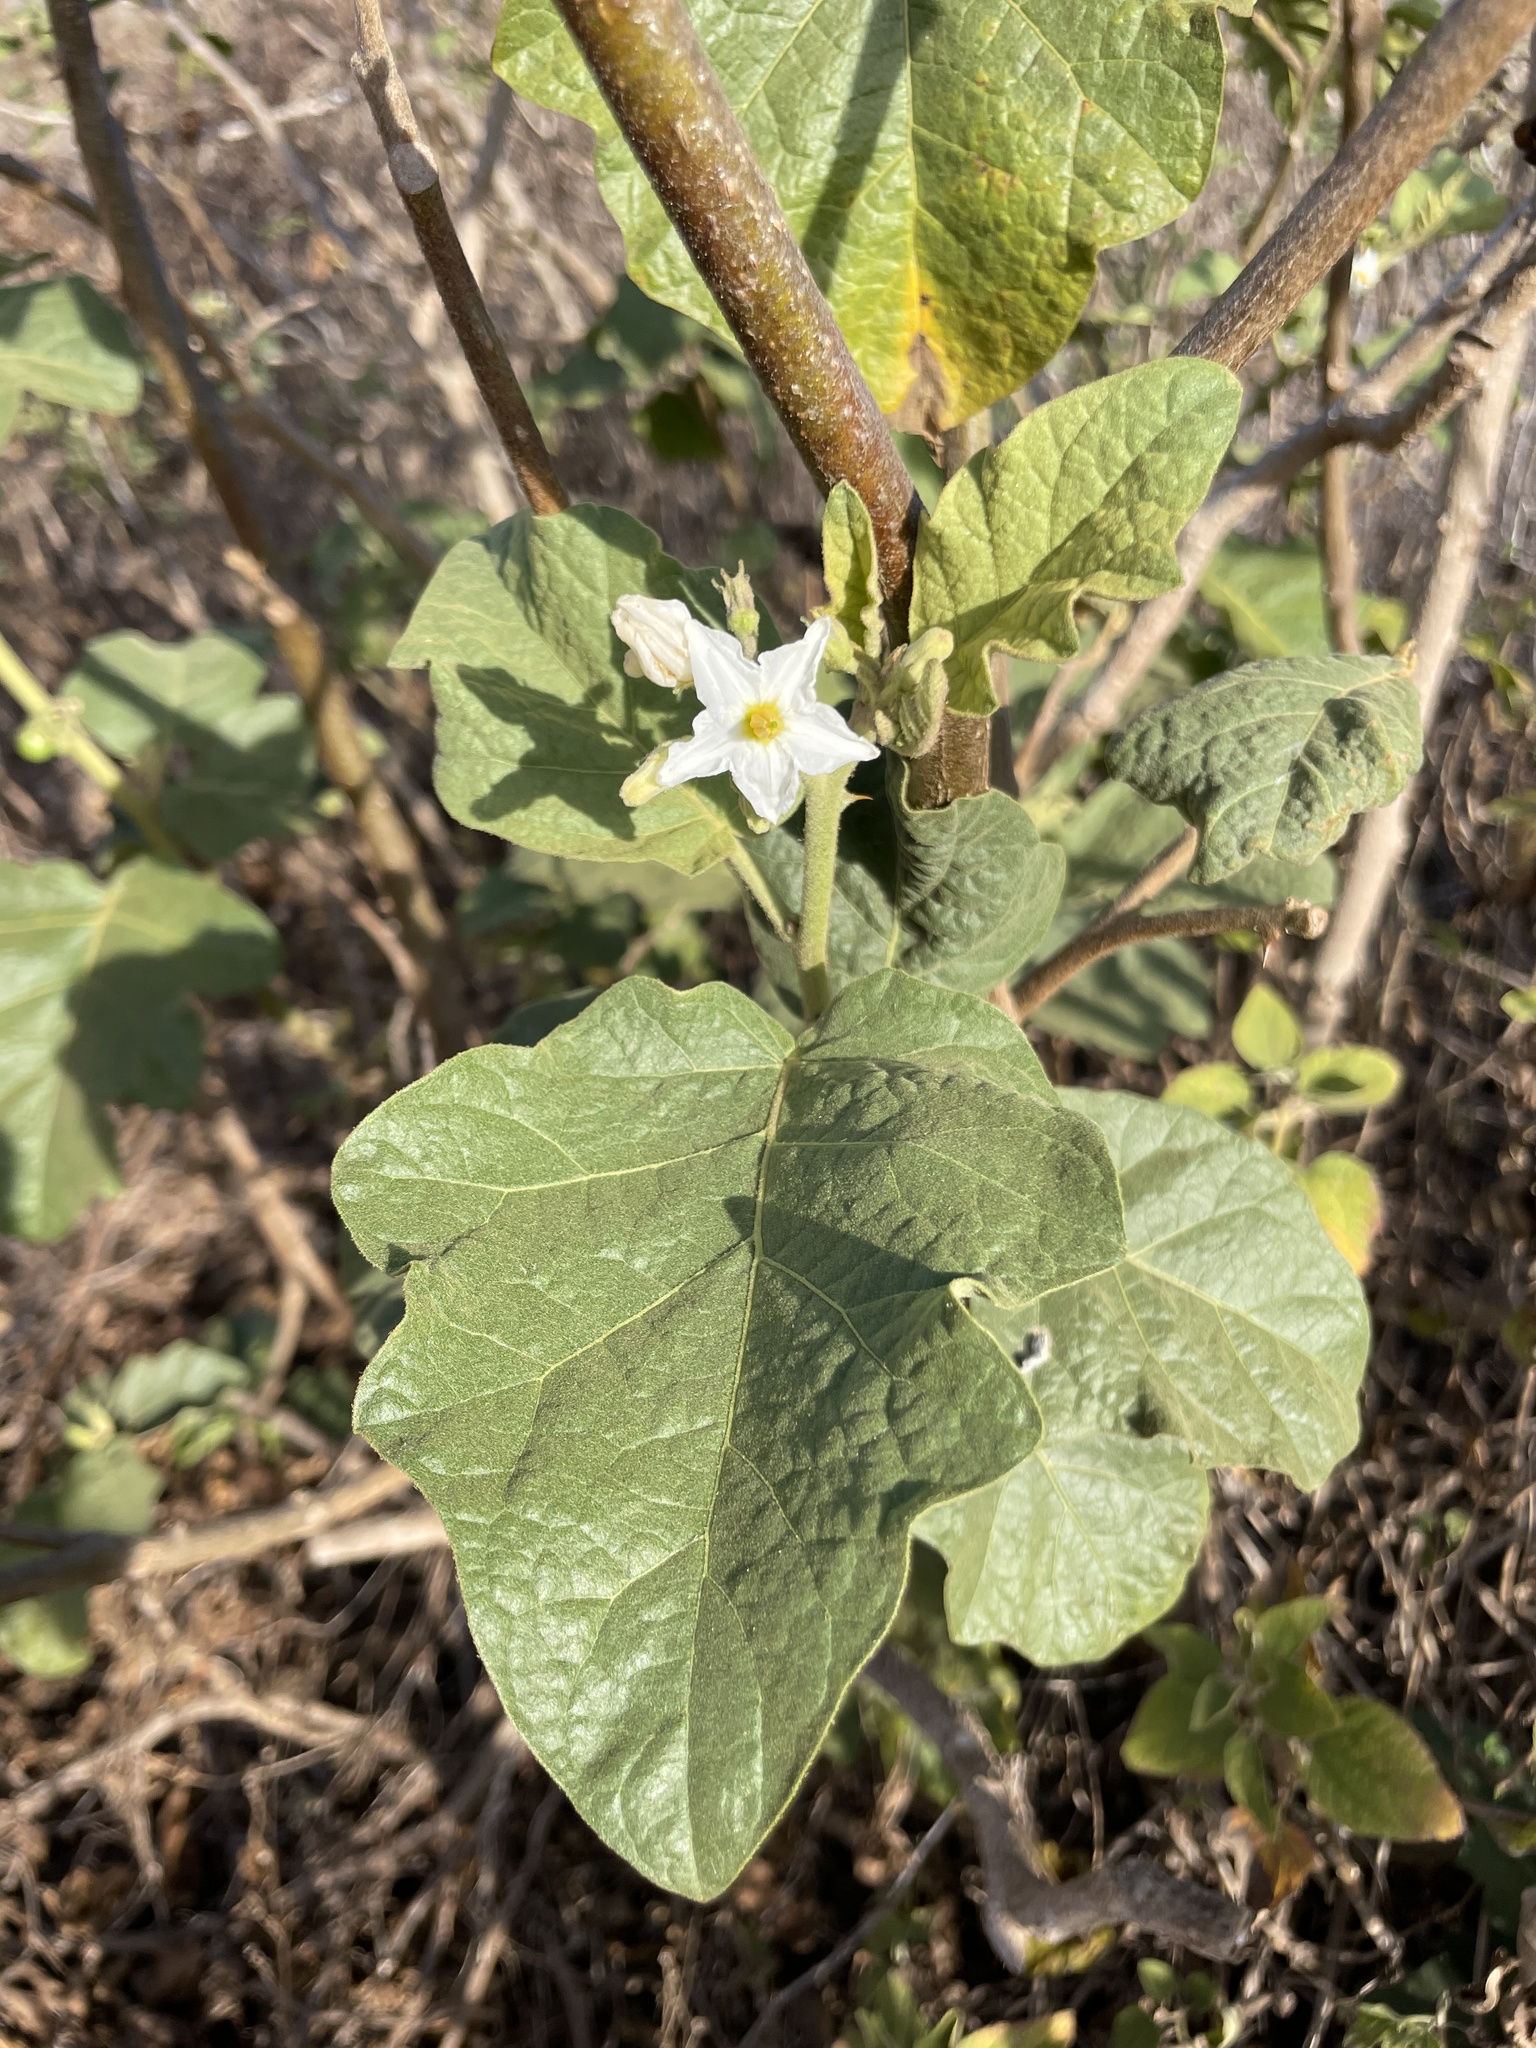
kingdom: Plantae
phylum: Tracheophyta
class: Magnoliopsida
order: Solanales
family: Solanaceae
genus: Solanum
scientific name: Solanum ferrugineum
